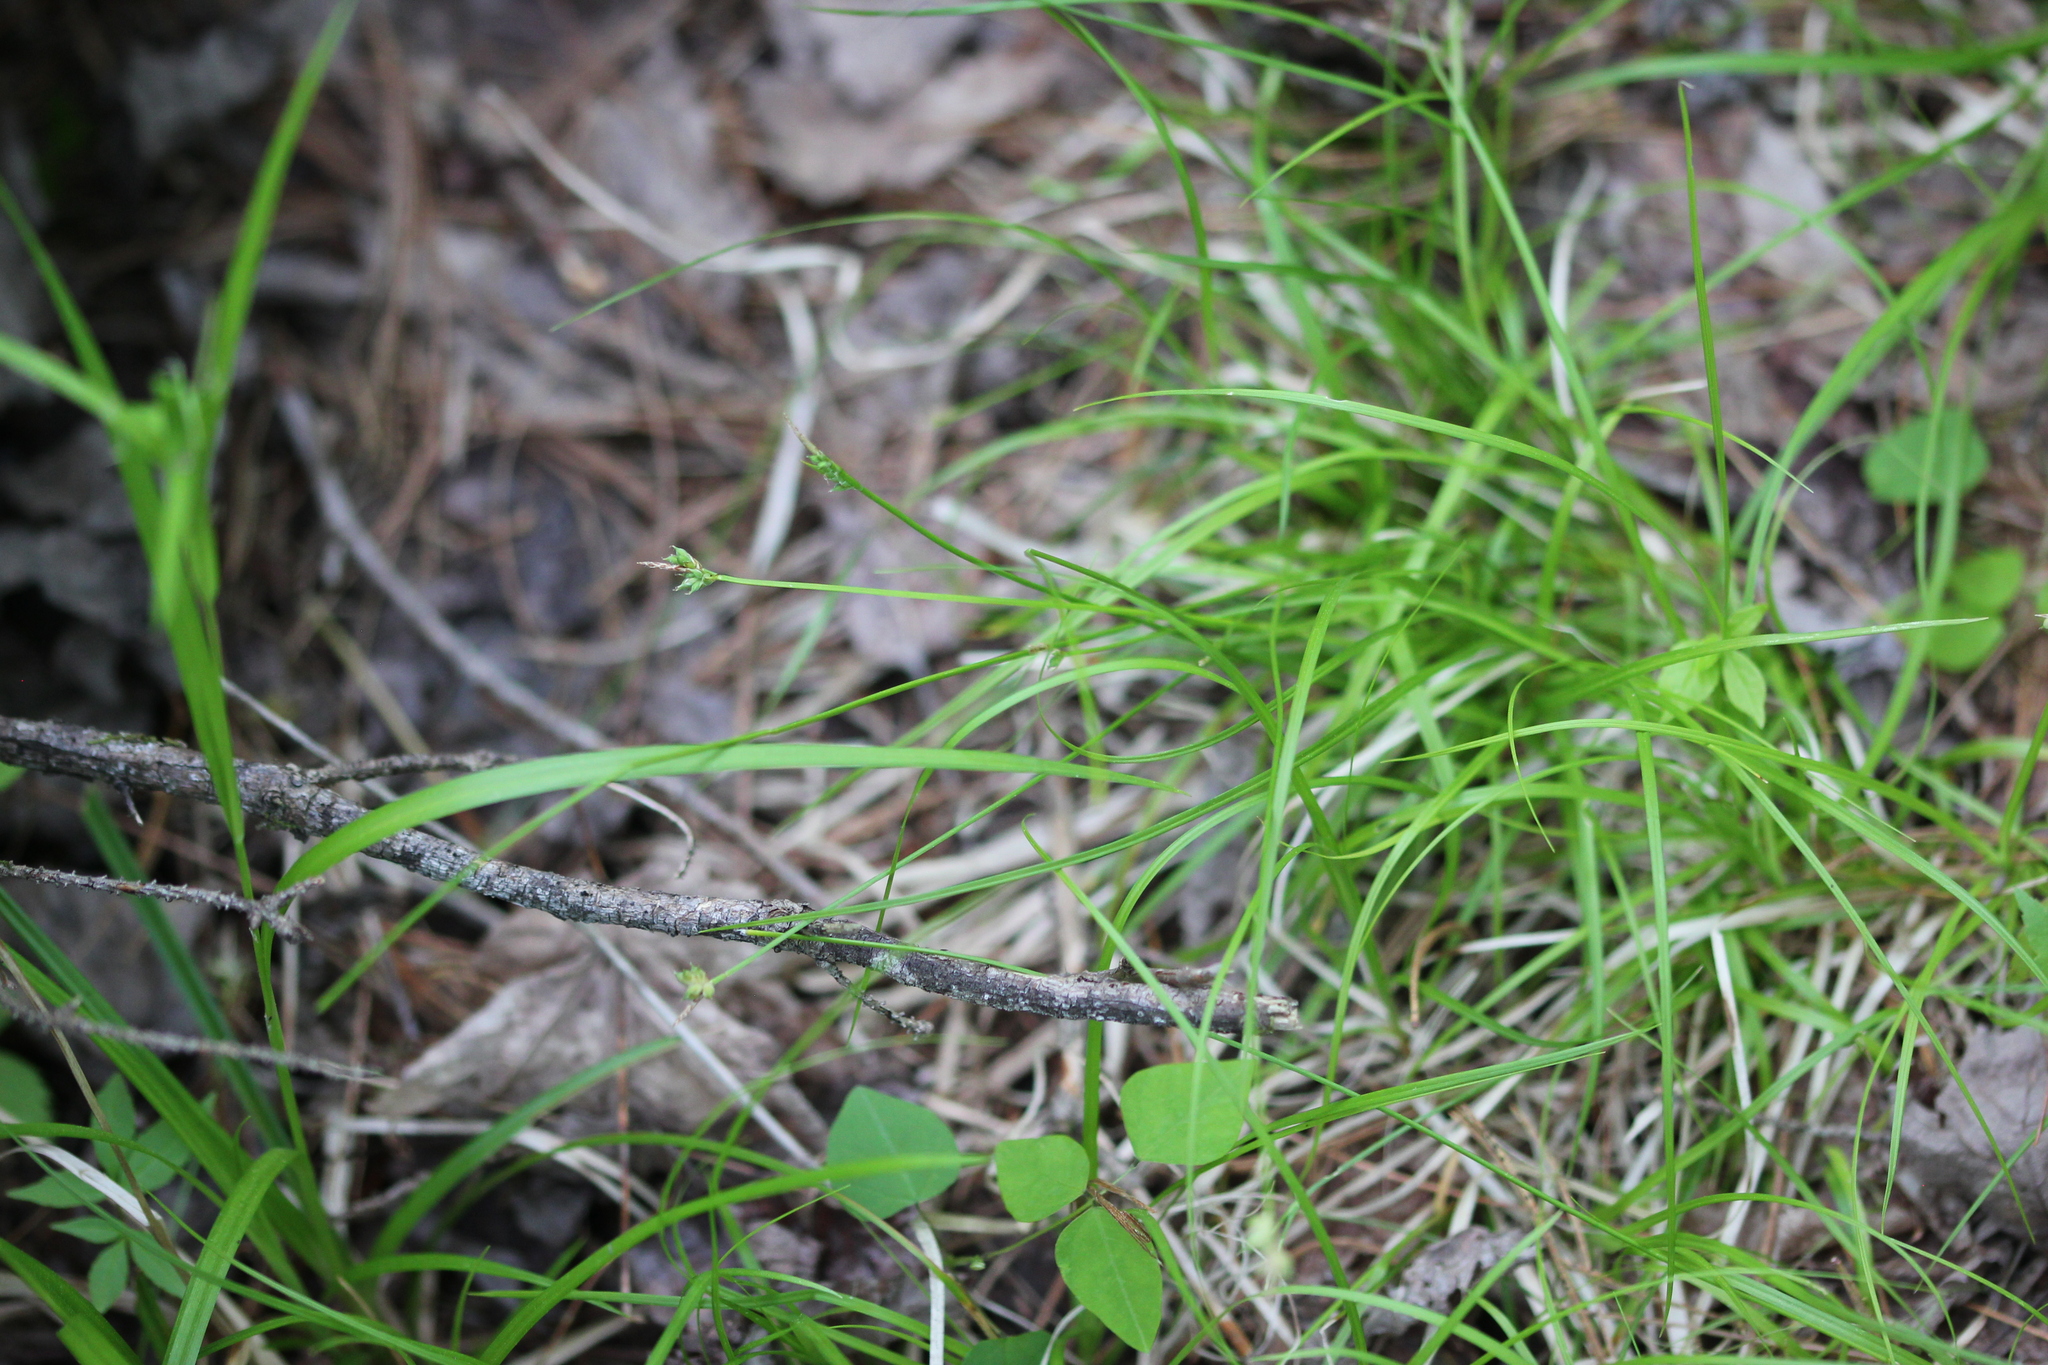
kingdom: Plantae
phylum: Tracheophyta
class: Liliopsida
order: Poales
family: Cyperaceae
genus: Carex
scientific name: Carex peckii
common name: Peck's oak sedge
